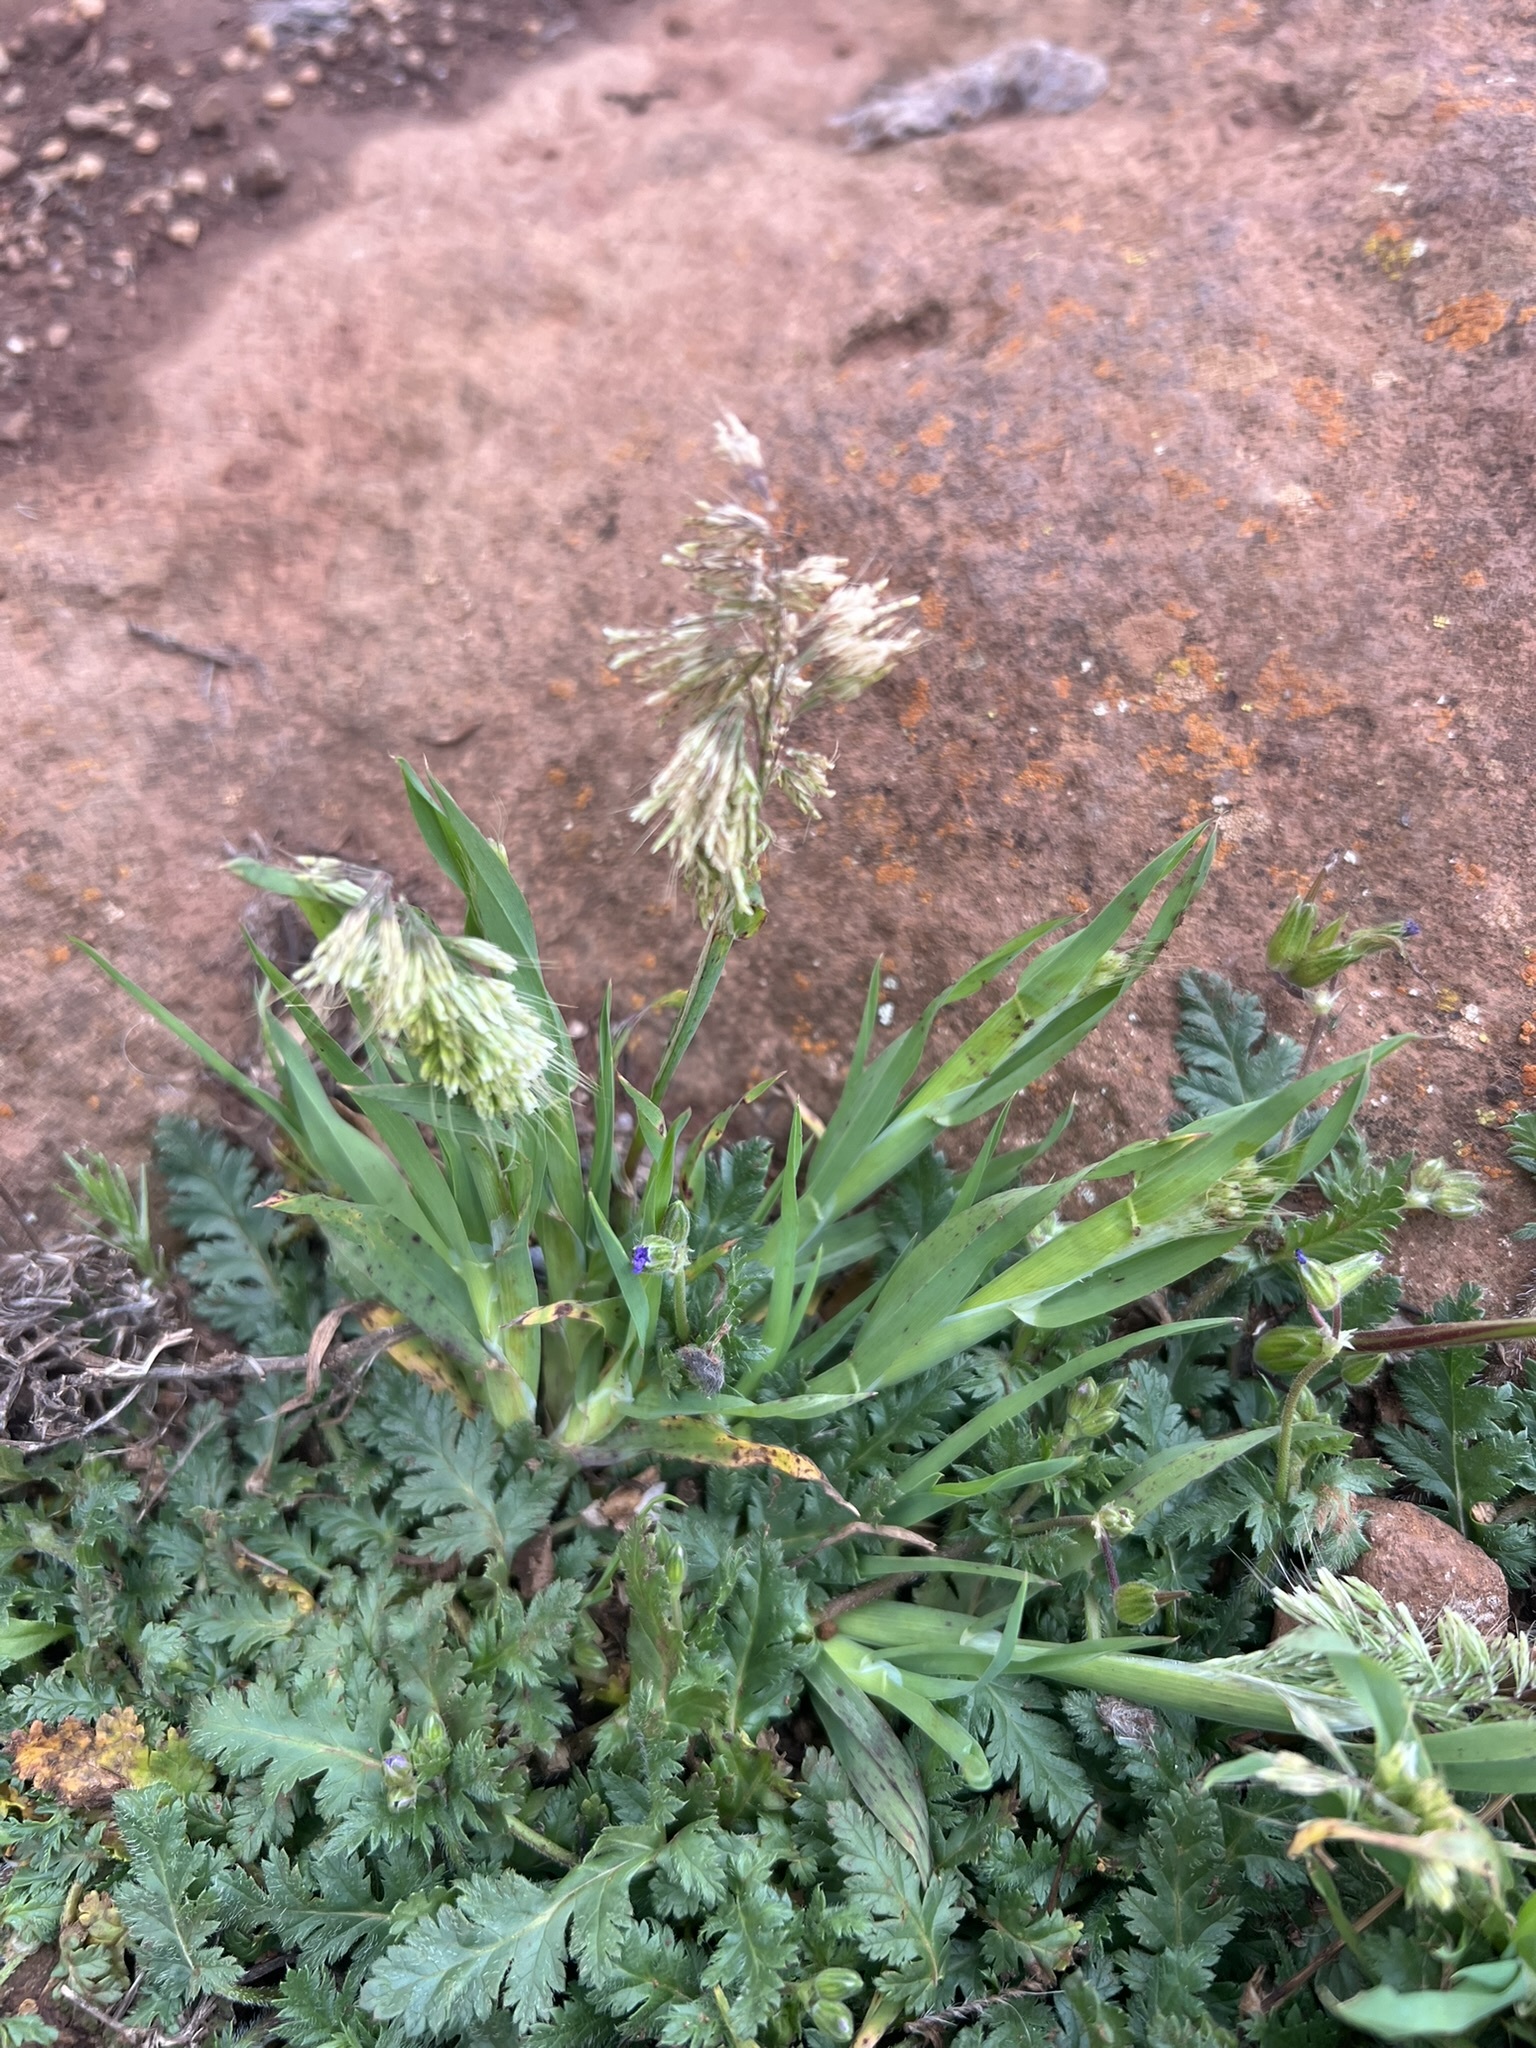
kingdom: Plantae
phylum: Tracheophyta
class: Liliopsida
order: Poales
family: Poaceae
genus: Lamarckia
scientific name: Lamarckia aurea
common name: Golden dog's-tail
